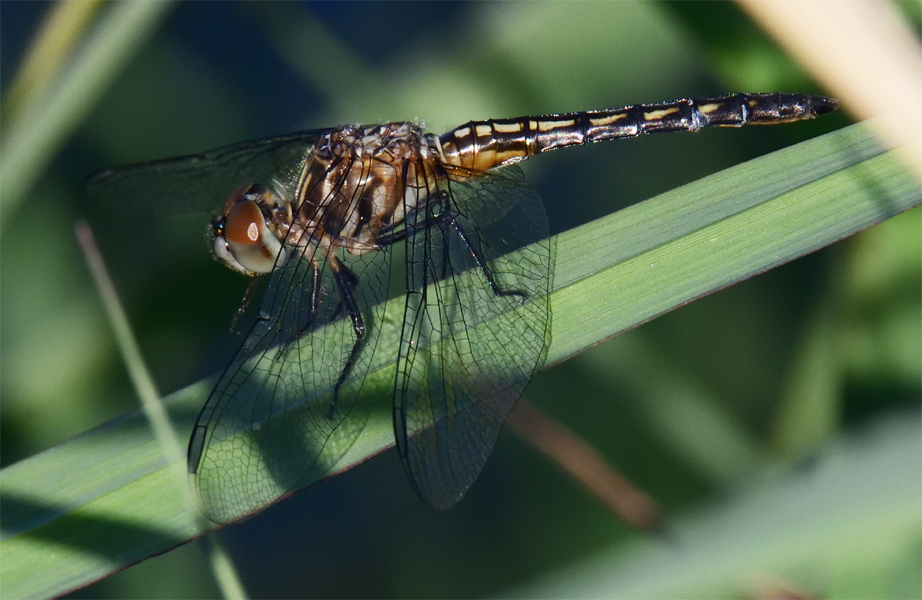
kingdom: Animalia
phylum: Arthropoda
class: Insecta
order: Odonata
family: Libellulidae
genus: Pachydiplax
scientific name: Pachydiplax longipennis
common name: Blue dasher
